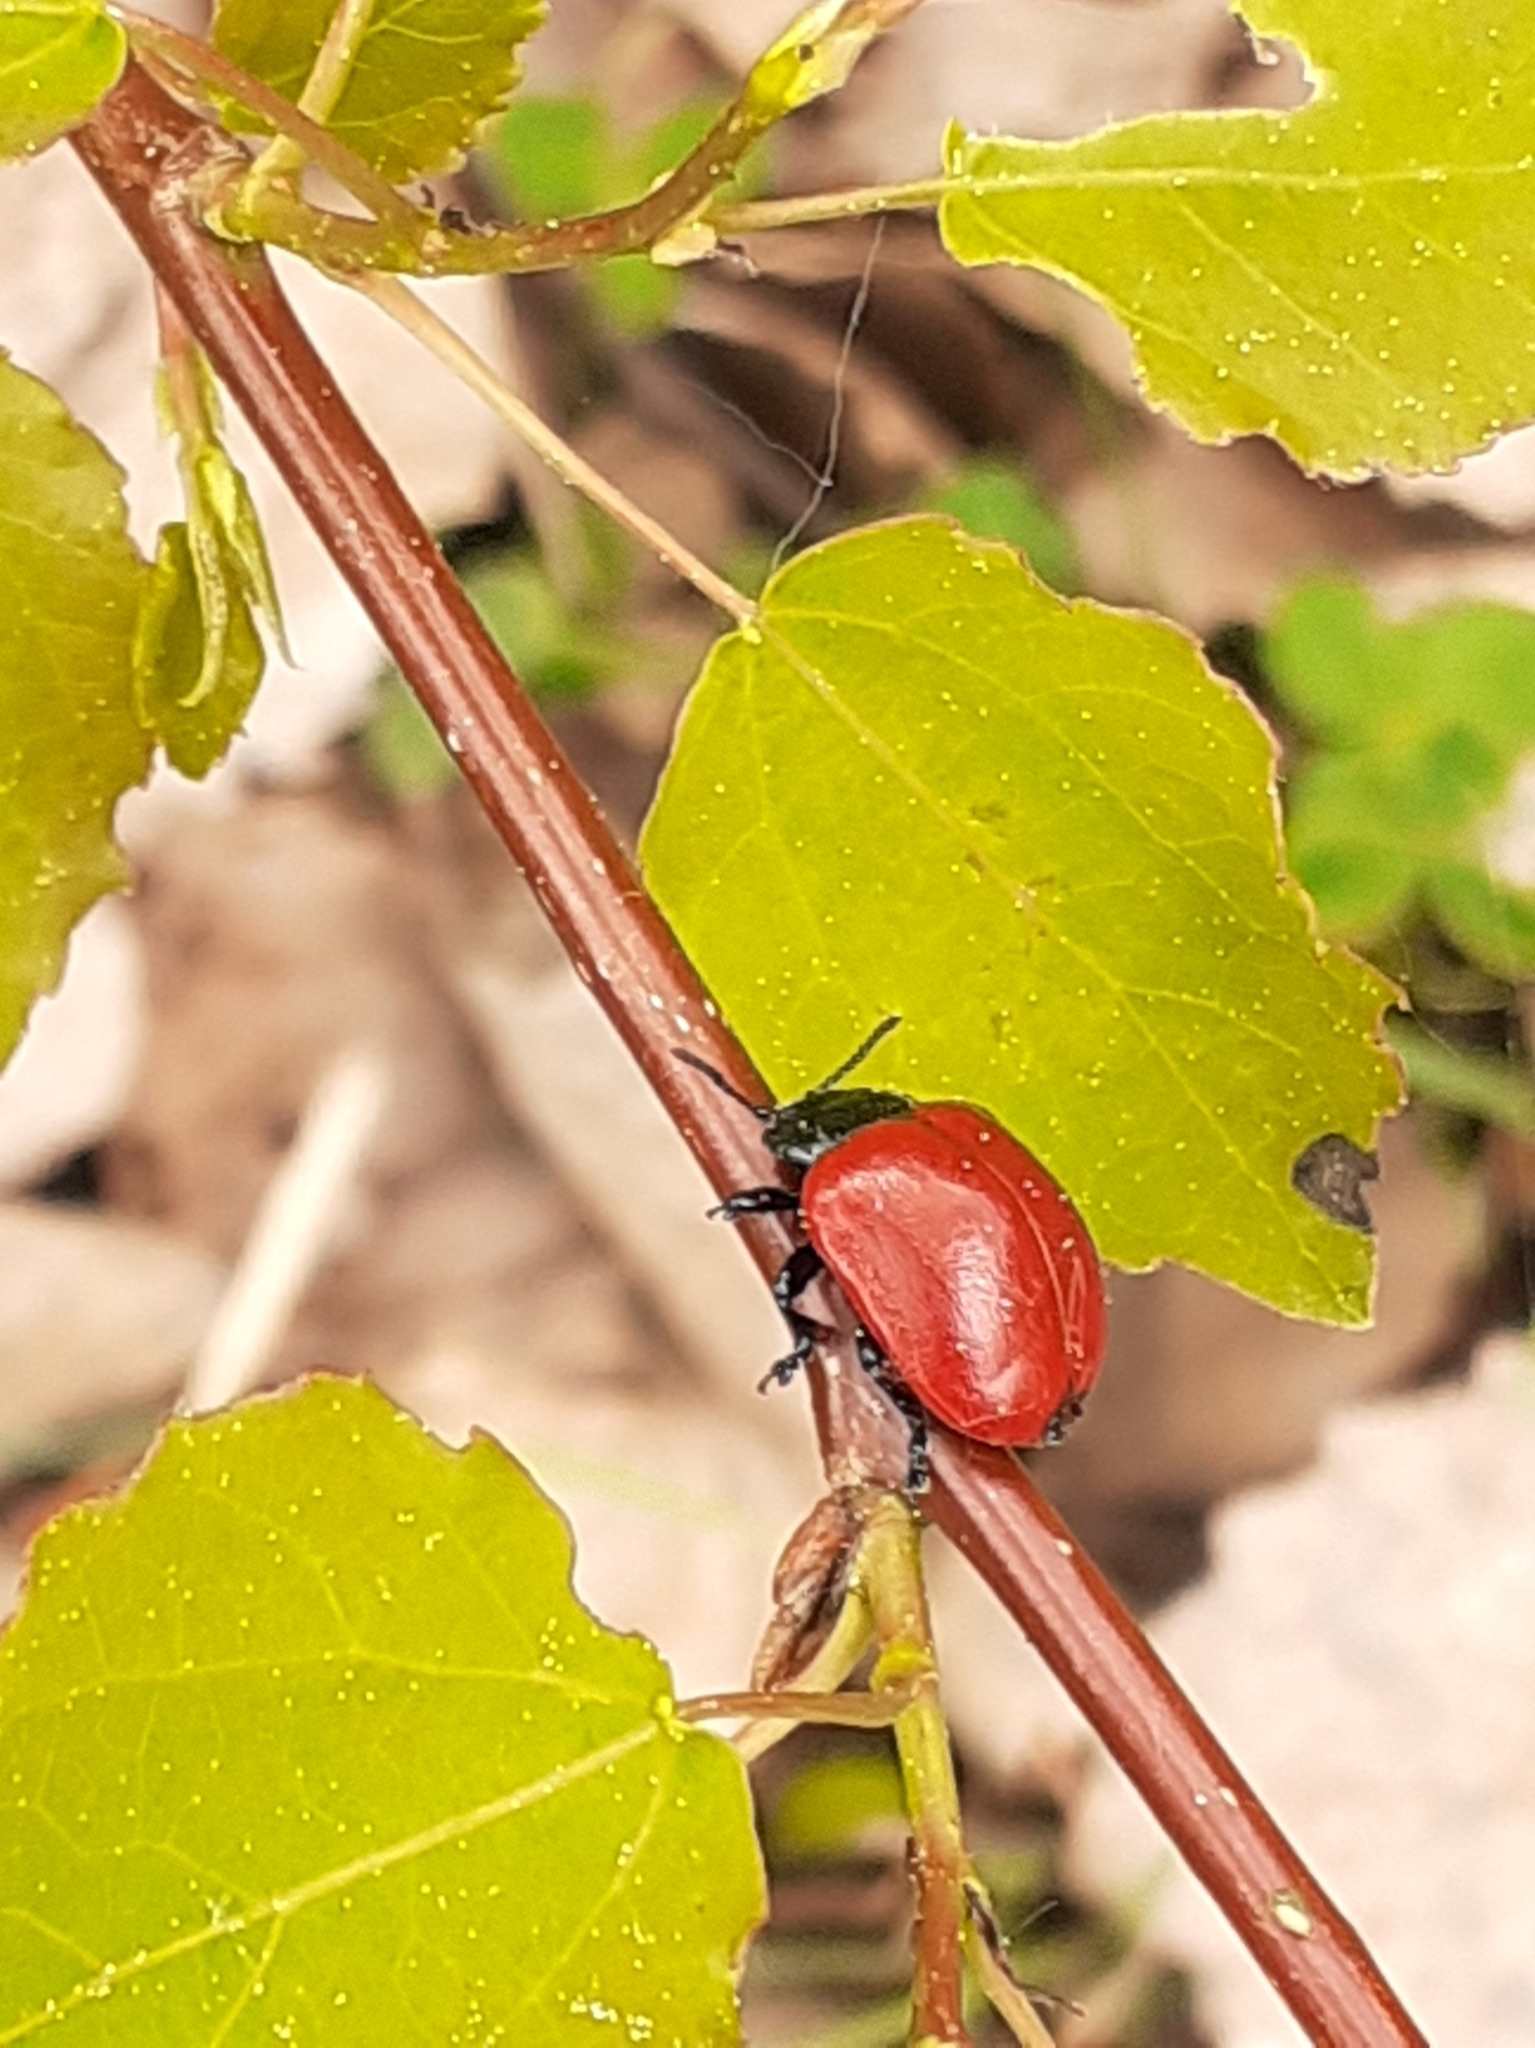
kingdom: Animalia
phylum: Arthropoda
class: Insecta
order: Coleoptera
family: Chrysomelidae
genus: Chrysomela
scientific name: Chrysomela populi
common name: Red poplar leaf beetle
